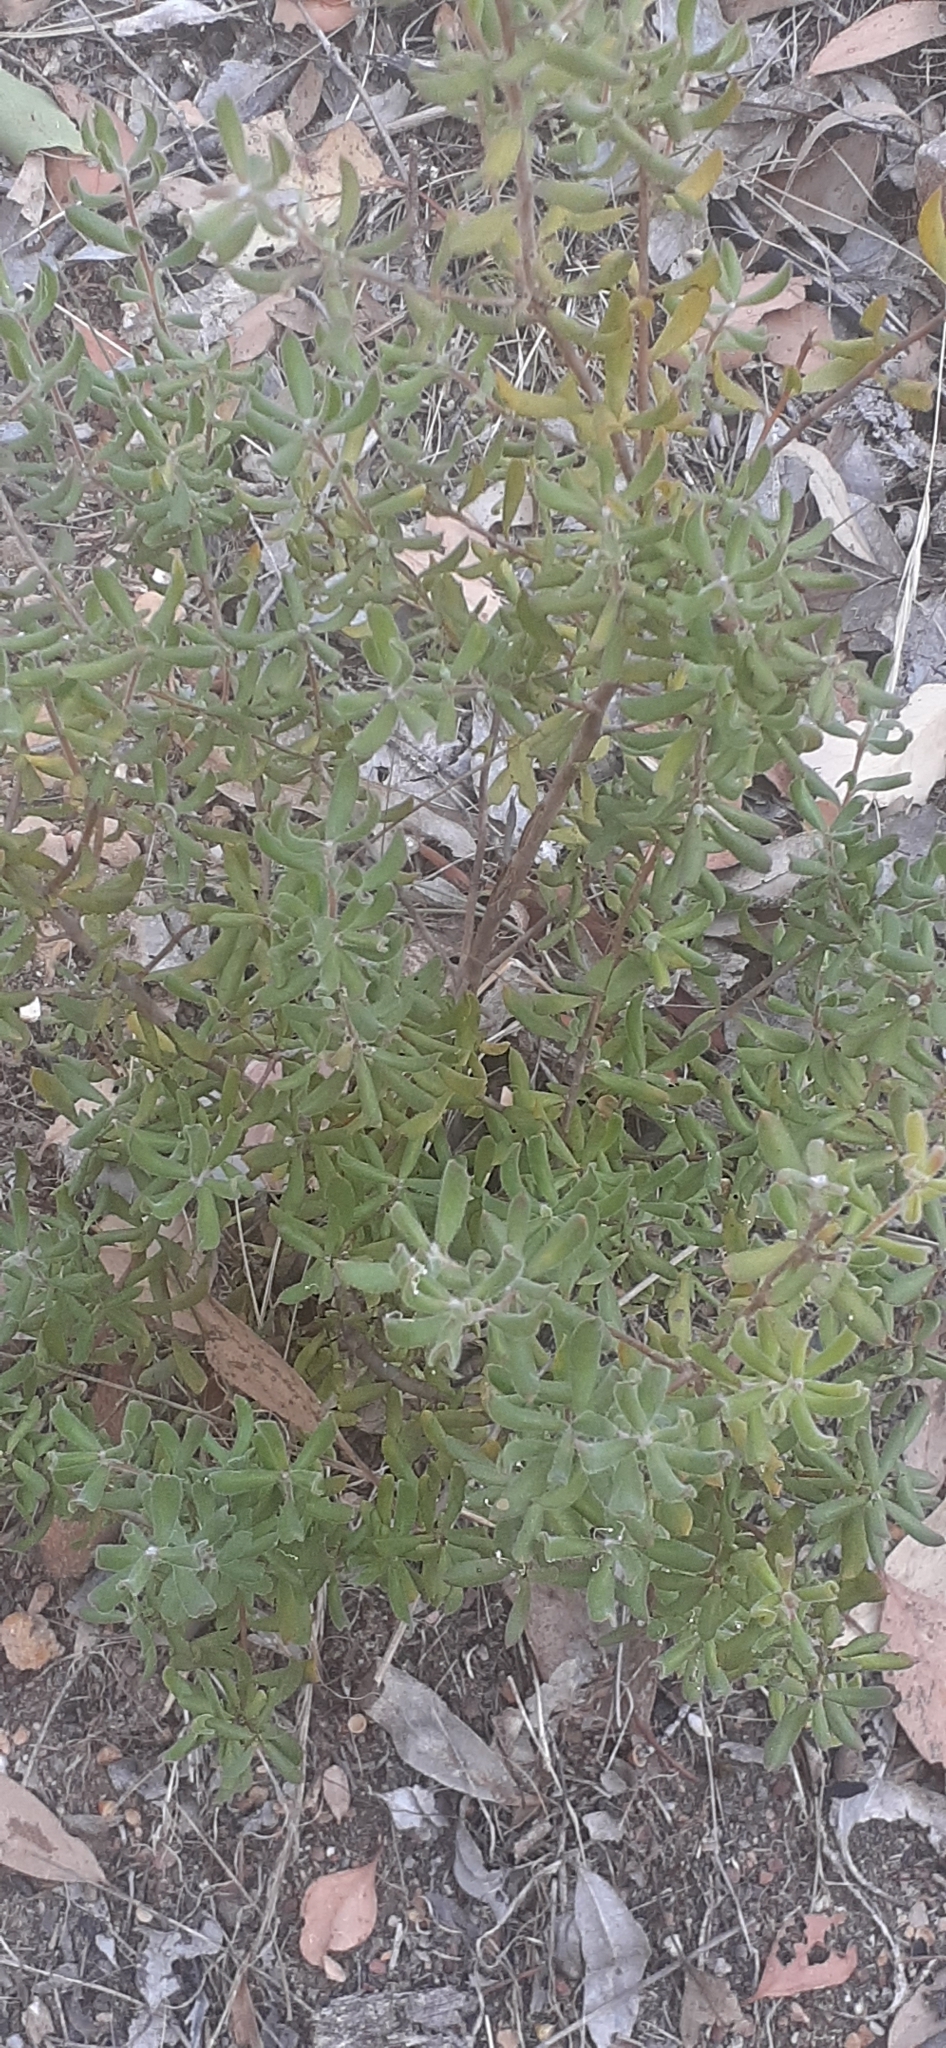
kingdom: Plantae
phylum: Tracheophyta
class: Magnoliopsida
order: Proteales
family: Proteaceae
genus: Persoonia
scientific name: Persoonia rigida
